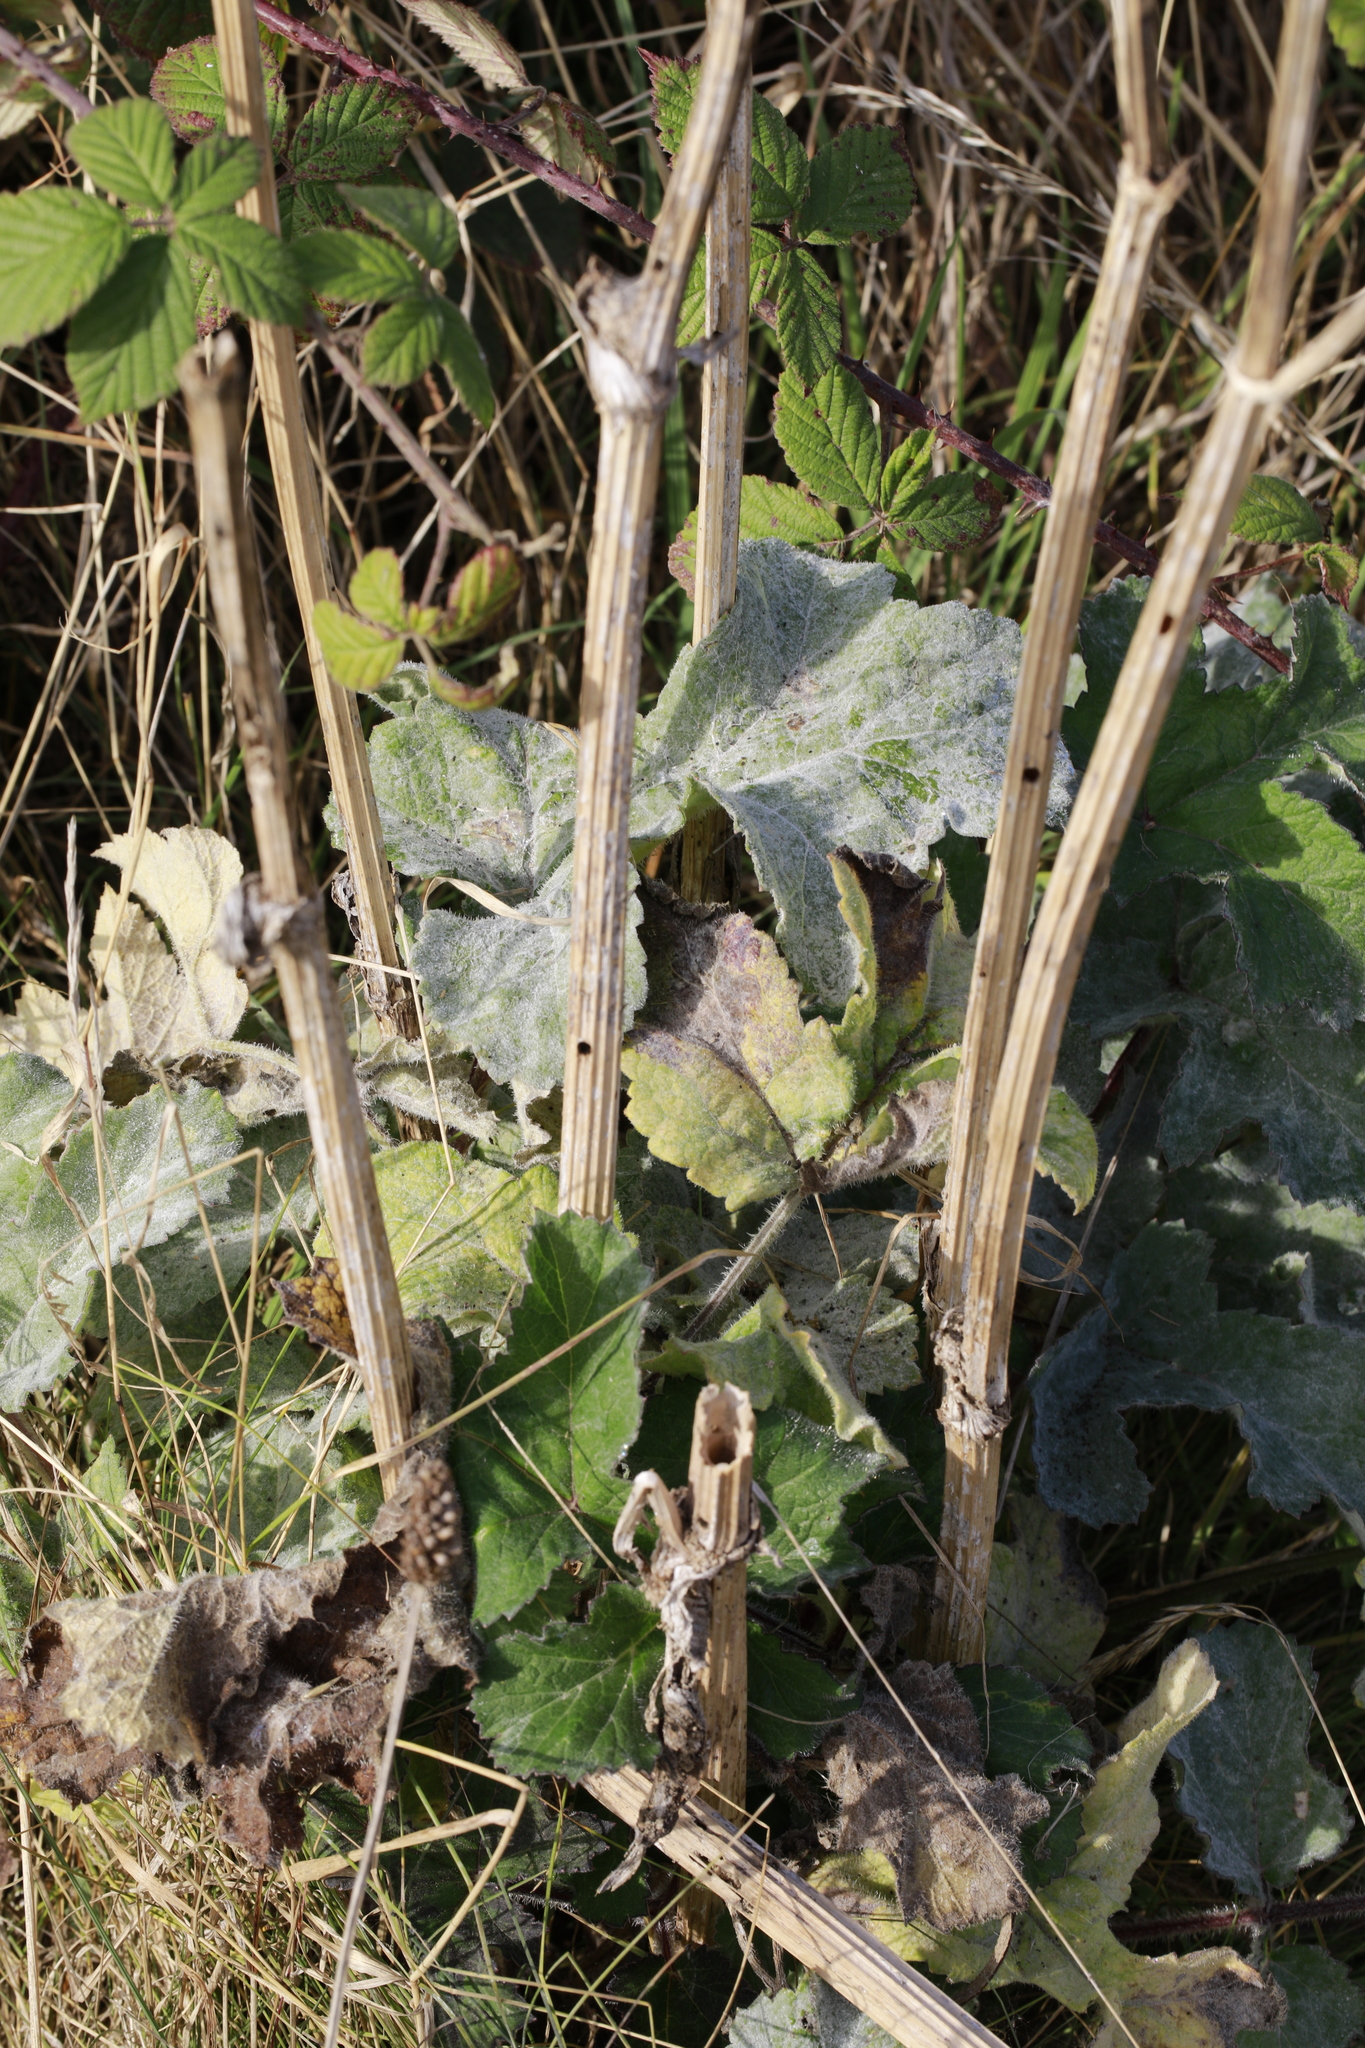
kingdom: Plantae
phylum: Tracheophyta
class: Magnoliopsida
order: Apiales
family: Apiaceae
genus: Heracleum
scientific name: Heracleum sphondylium
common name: Hogweed
